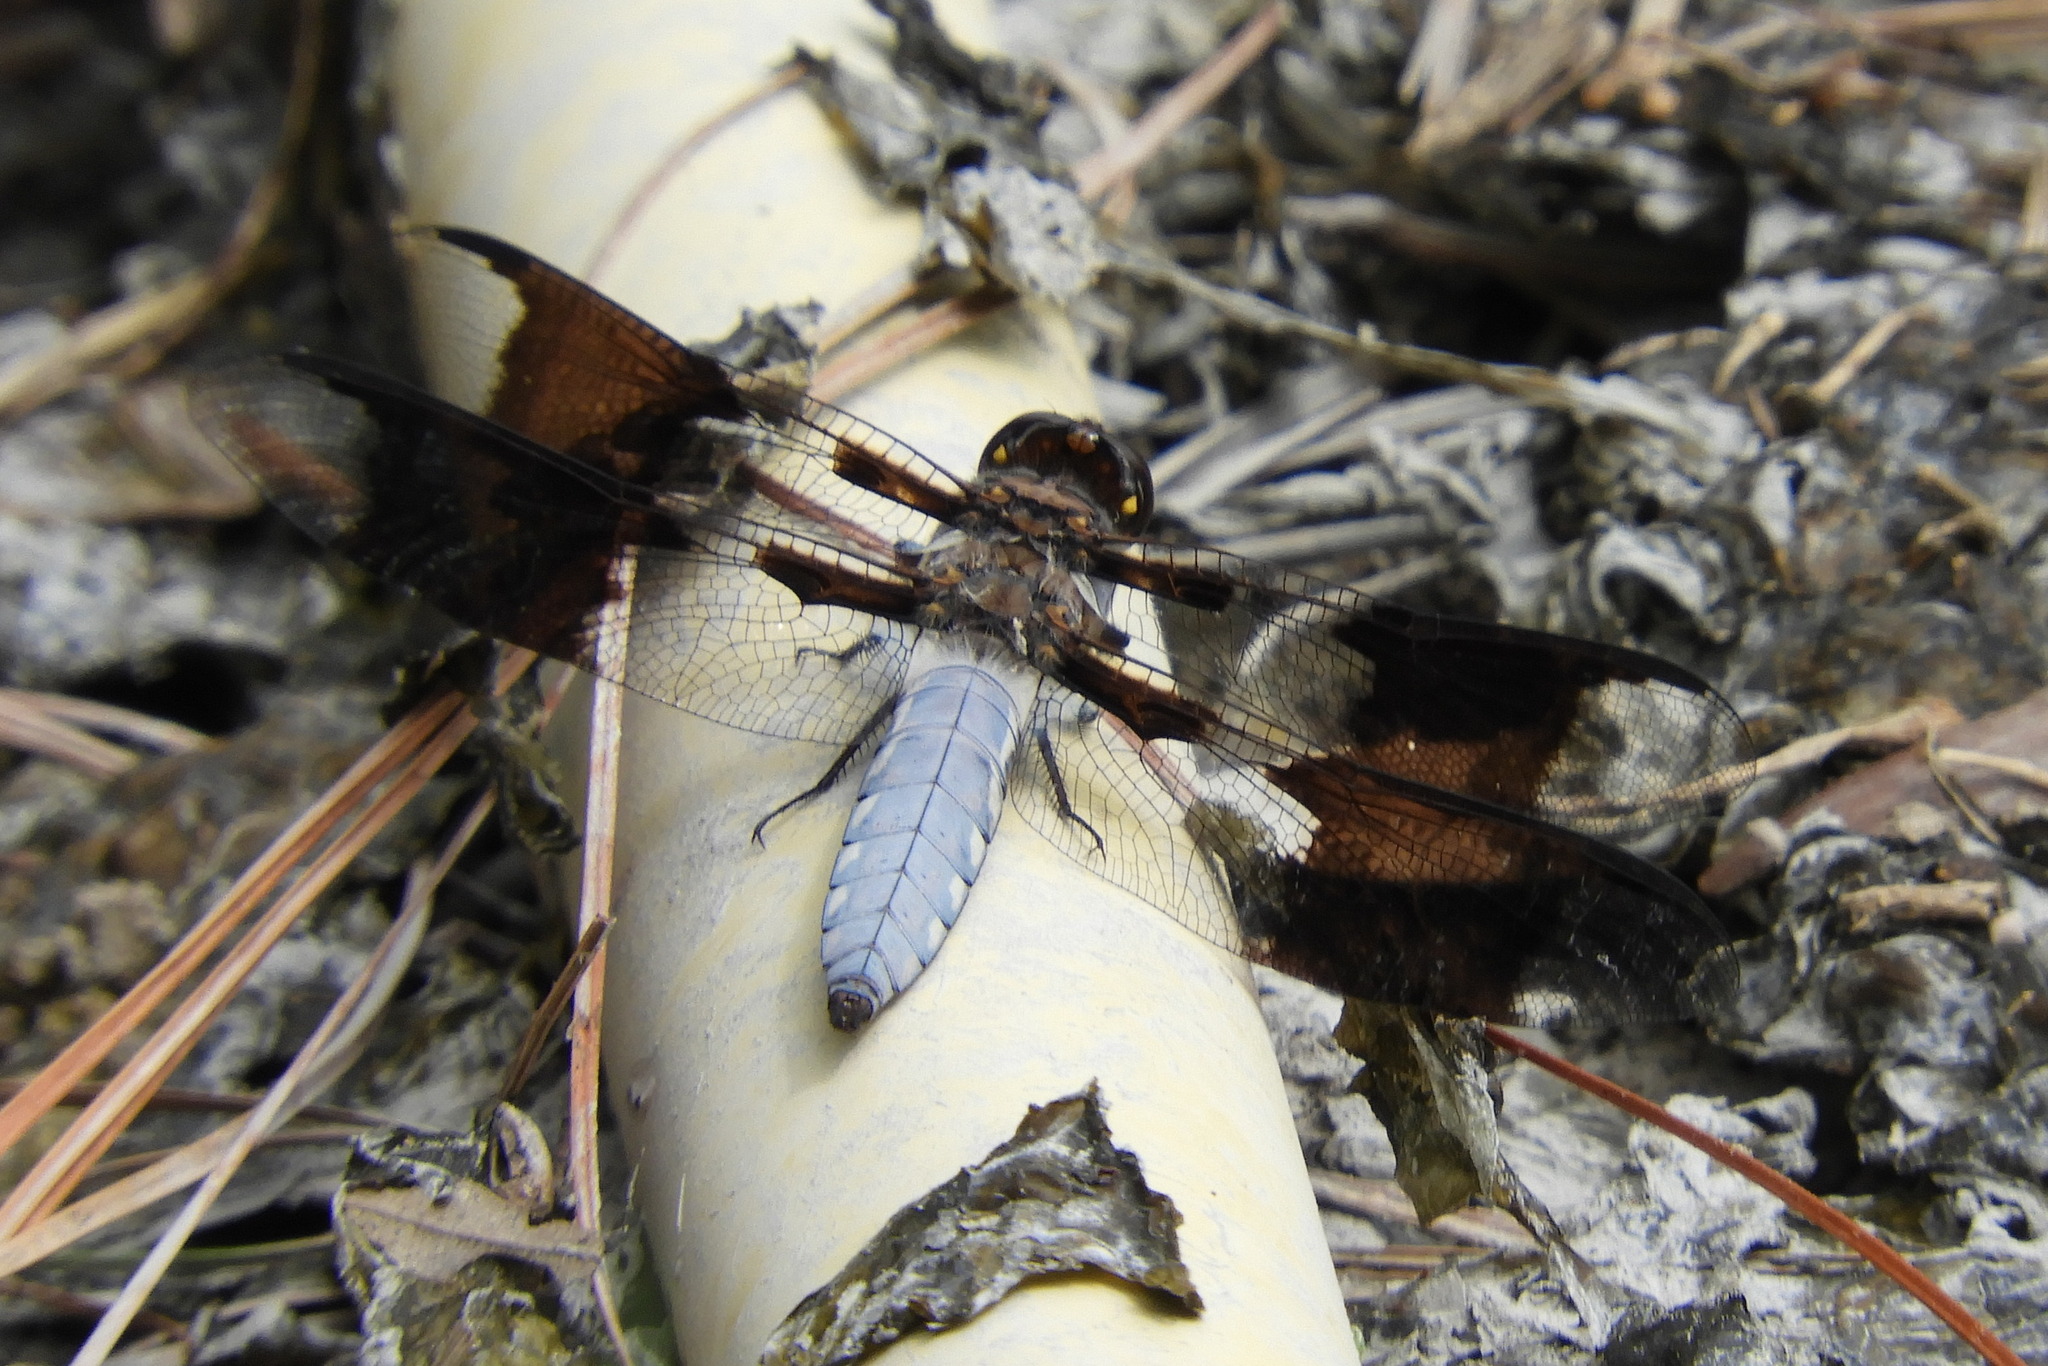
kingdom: Animalia
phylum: Arthropoda
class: Insecta
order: Odonata
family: Libellulidae
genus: Plathemis
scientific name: Plathemis lydia
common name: Common whitetail
